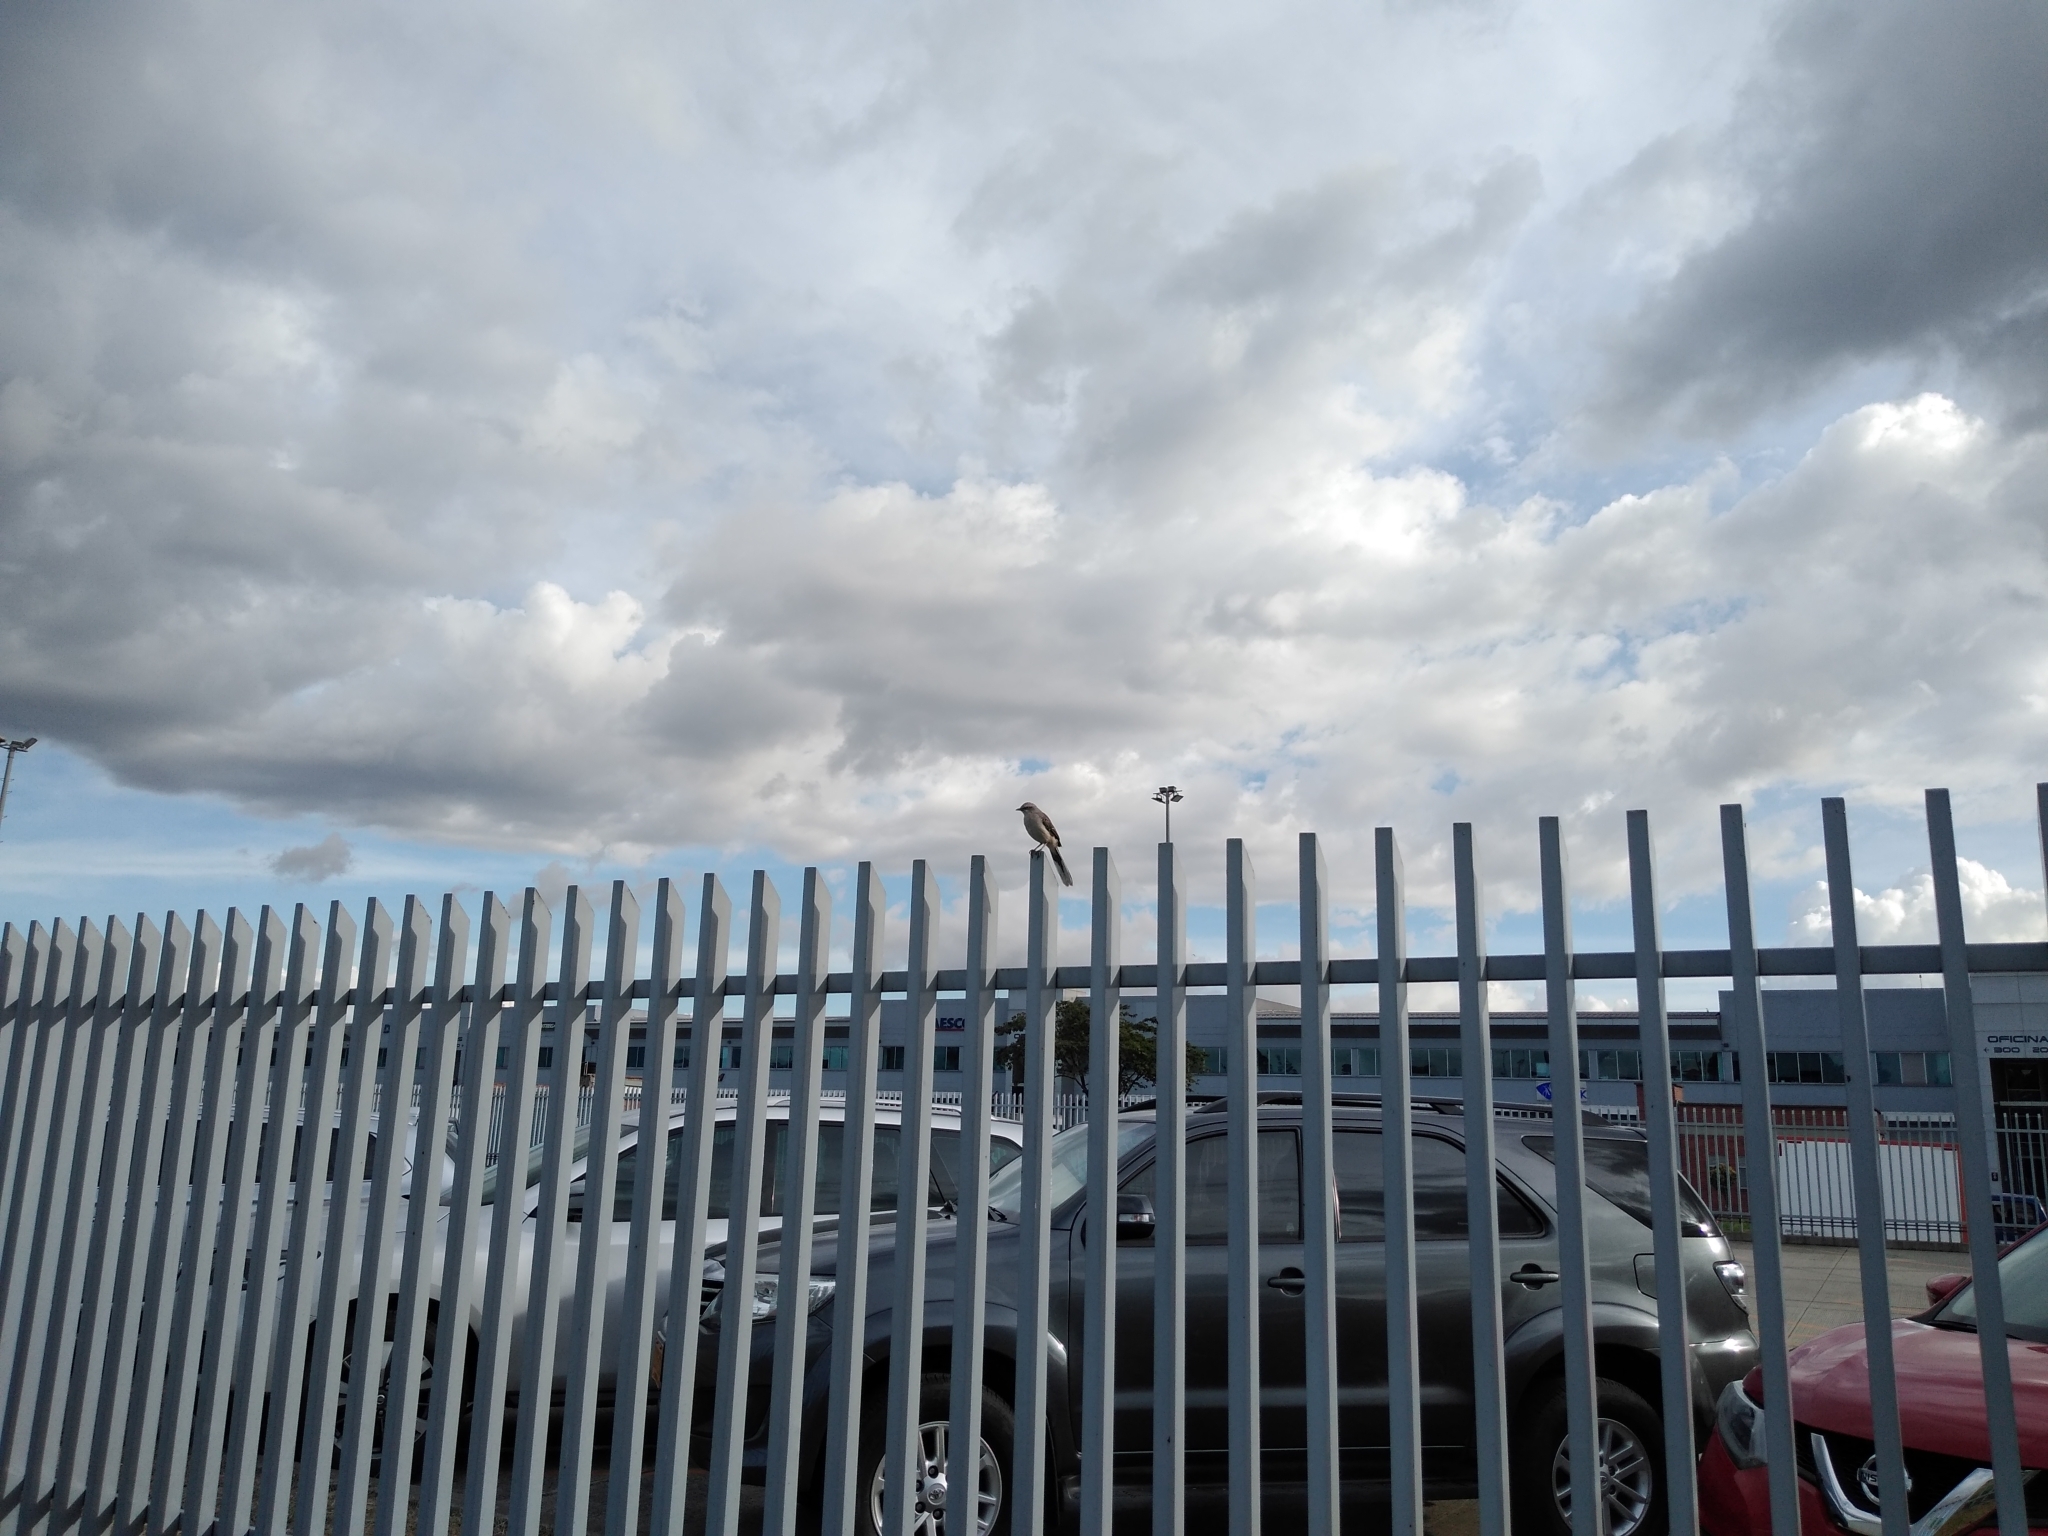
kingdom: Animalia
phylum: Chordata
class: Aves
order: Passeriformes
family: Mimidae
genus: Mimus
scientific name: Mimus gilvus
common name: Tropical mockingbird
